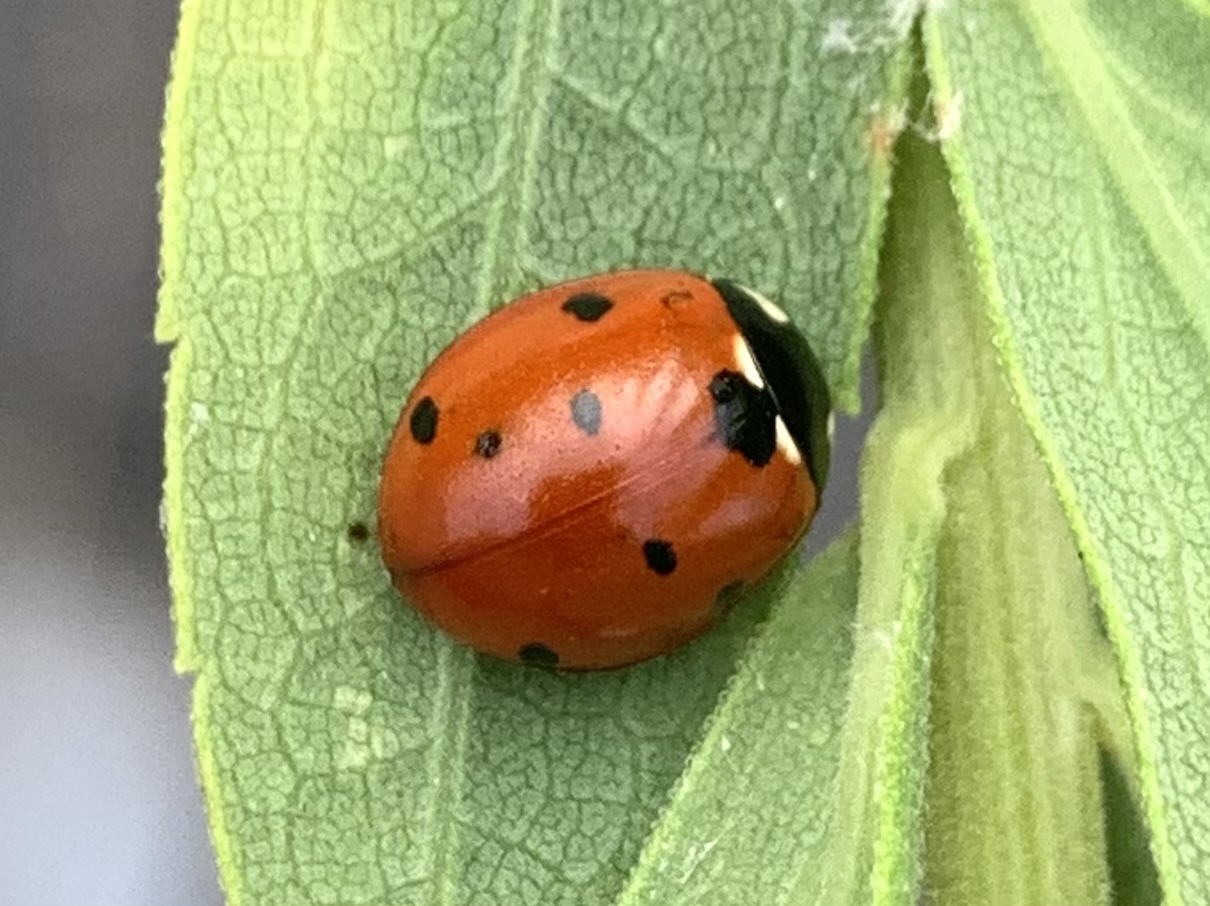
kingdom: Animalia
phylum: Arthropoda
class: Insecta
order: Coleoptera
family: Coccinellidae
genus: Coccinella
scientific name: Coccinella septempunctata
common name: Sevenspotted lady beetle
